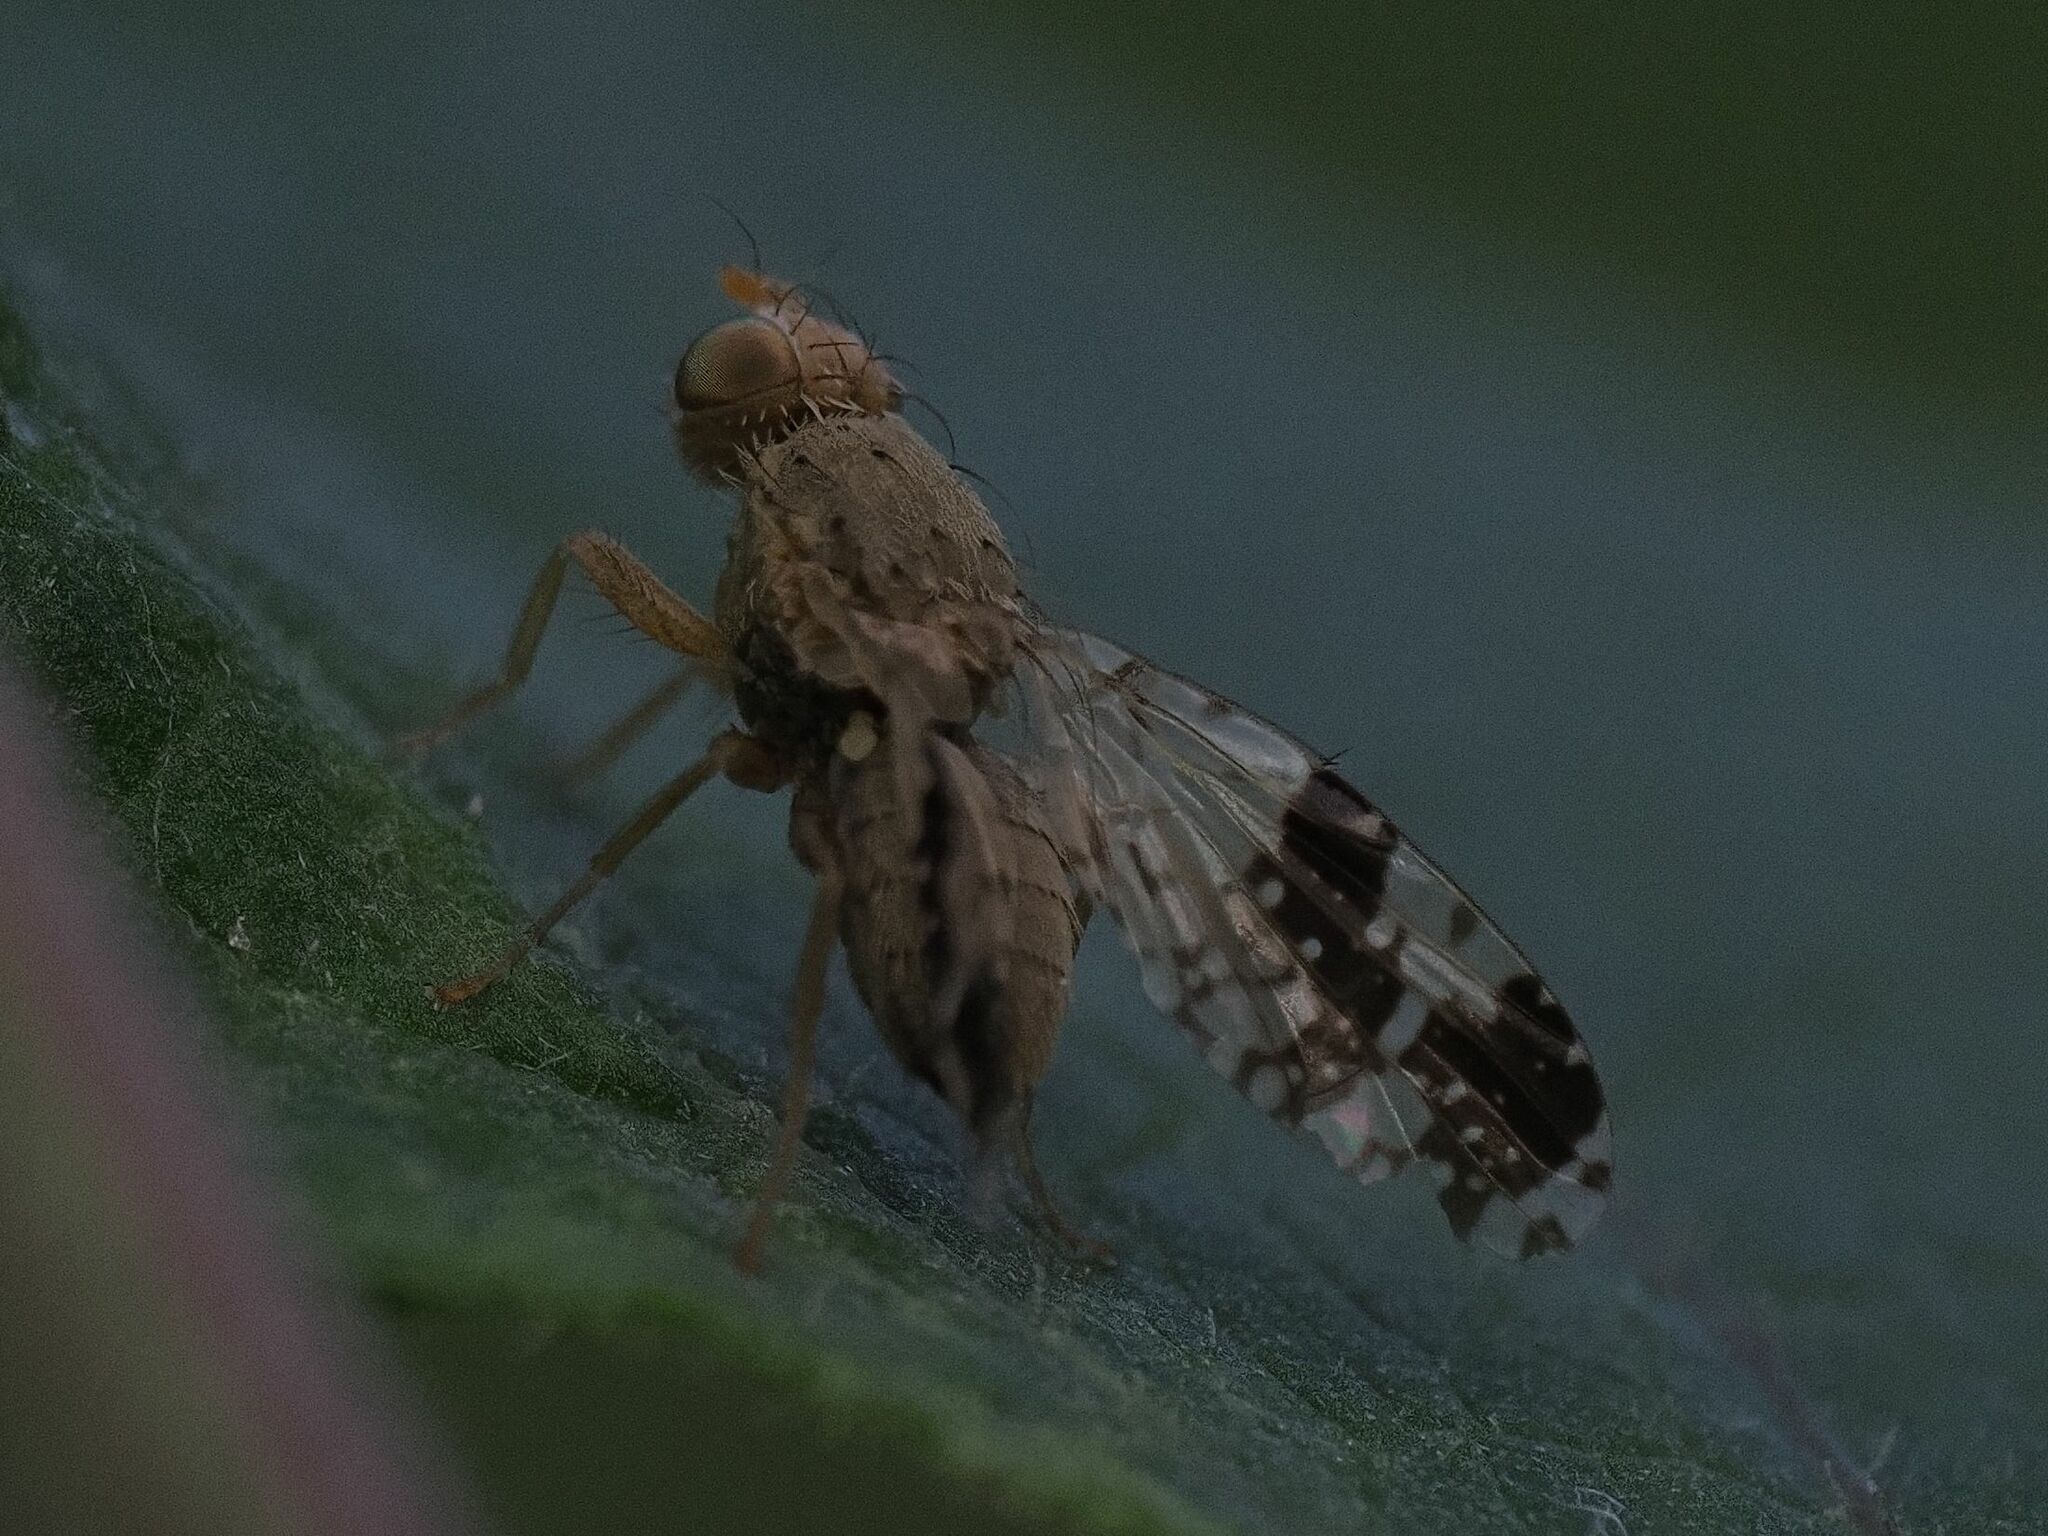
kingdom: Animalia
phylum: Arthropoda
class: Insecta
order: Diptera
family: Tephritidae
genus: Tephritis
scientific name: Tephritis bardanae
